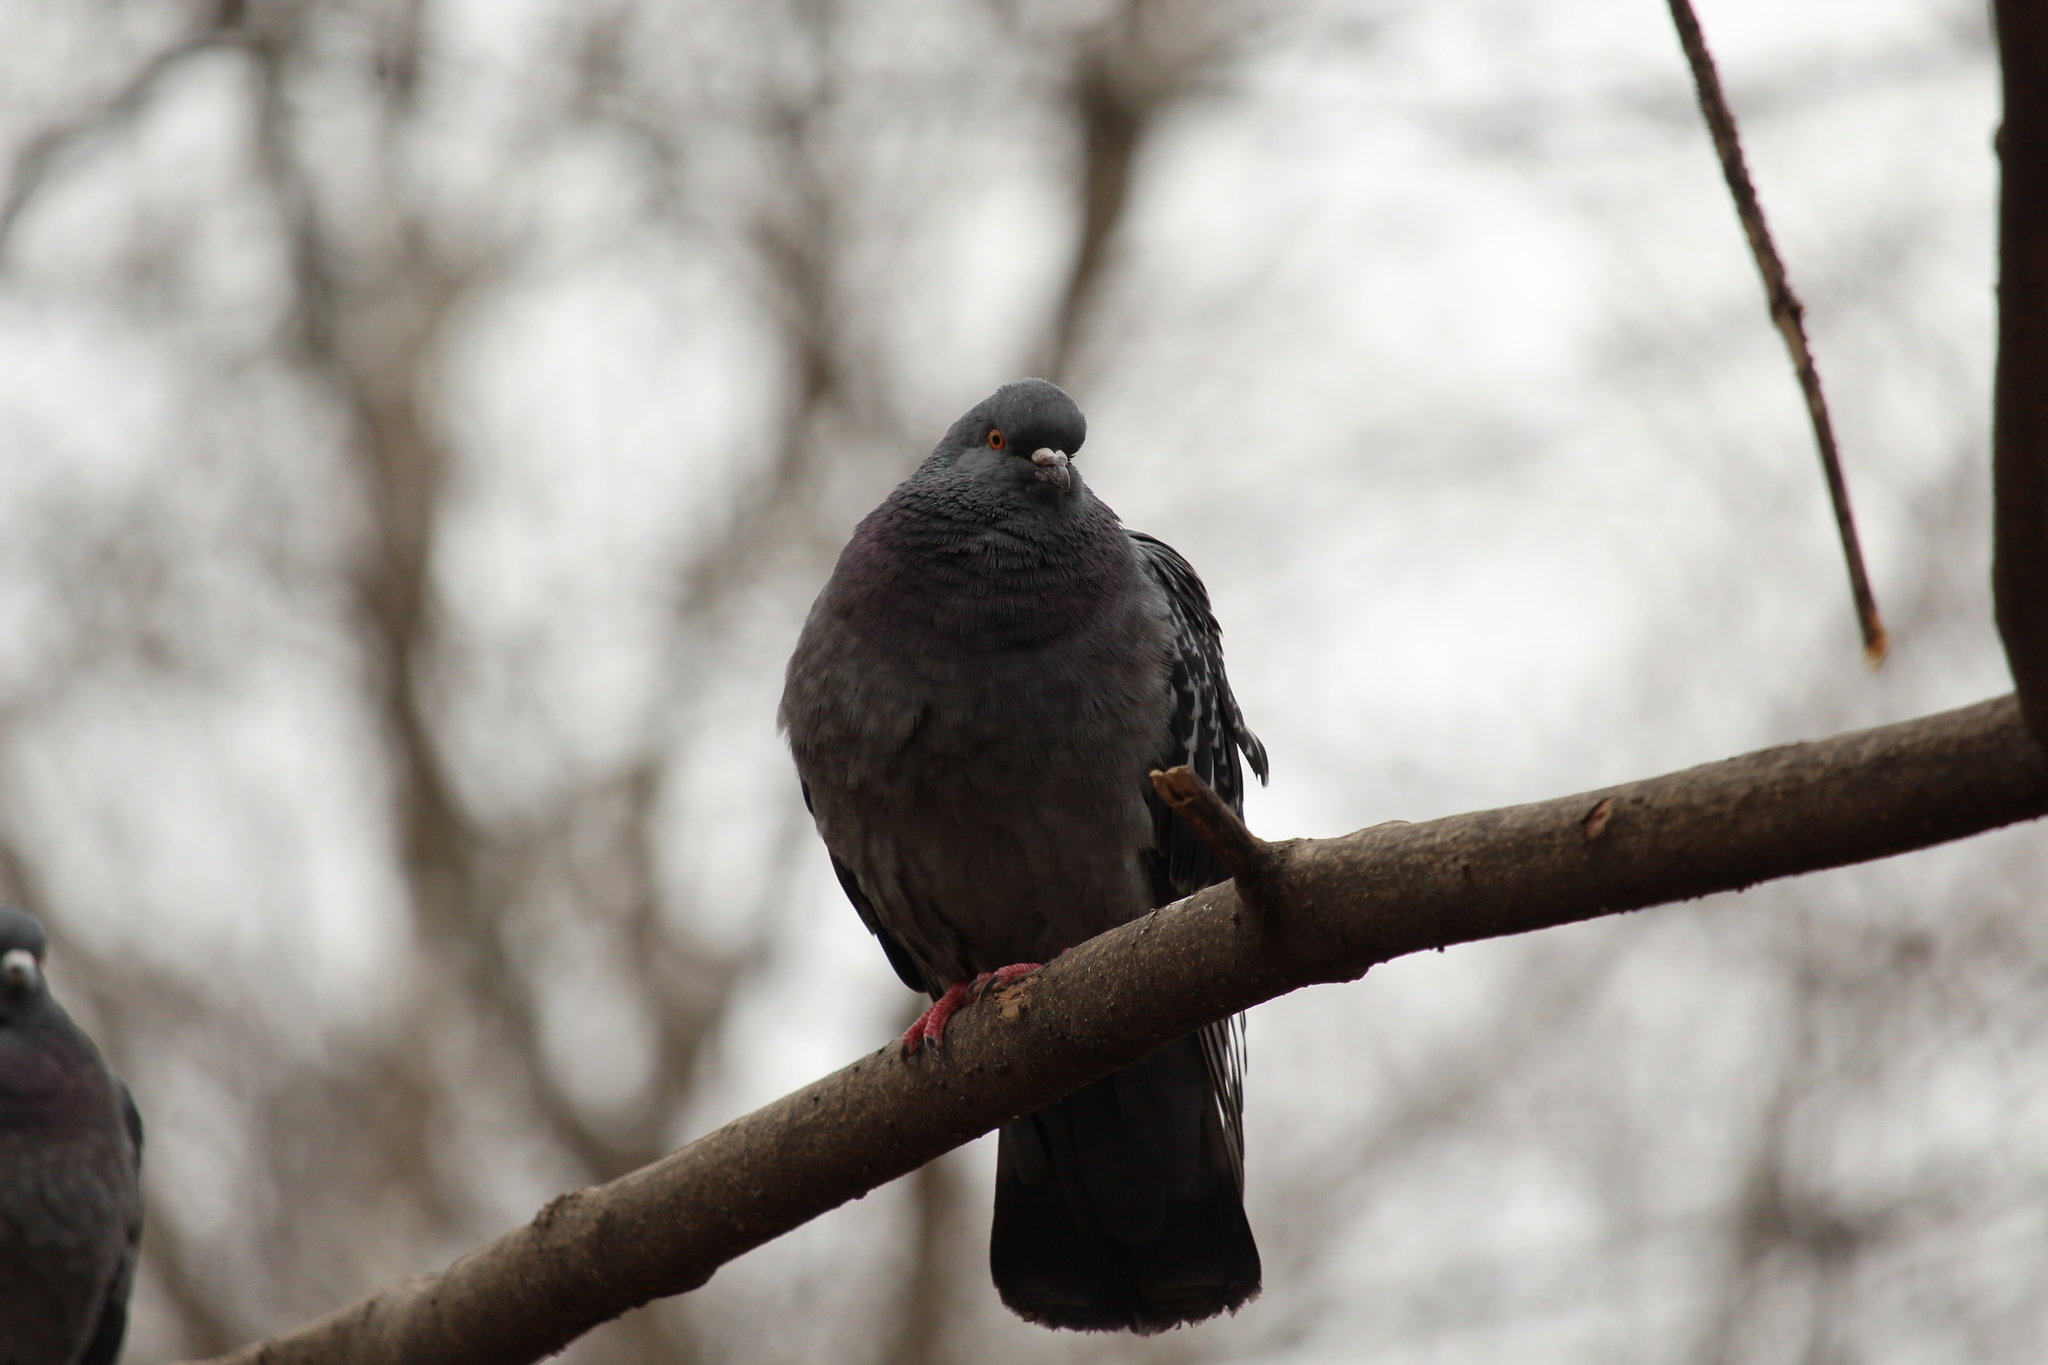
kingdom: Animalia
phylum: Chordata
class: Aves
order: Columbiformes
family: Columbidae
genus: Columba
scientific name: Columba livia
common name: Rock pigeon
